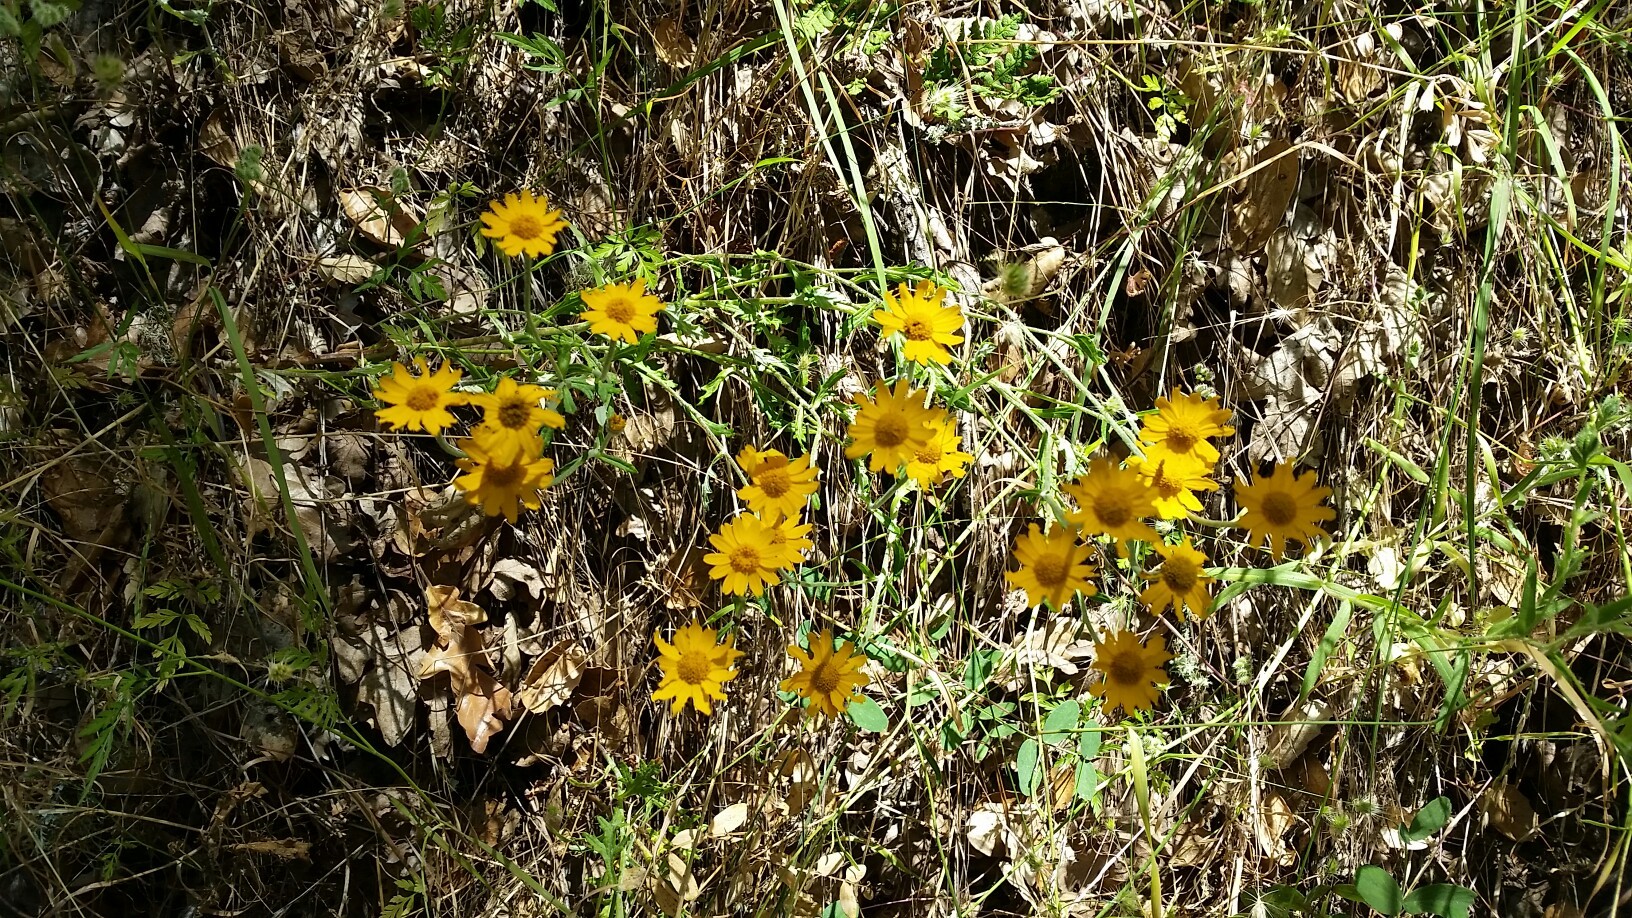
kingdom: Plantae
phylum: Tracheophyta
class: Magnoliopsida
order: Asterales
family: Asteraceae
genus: Eriophyllum
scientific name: Eriophyllum lanatum
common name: Common woolly-sunflower
